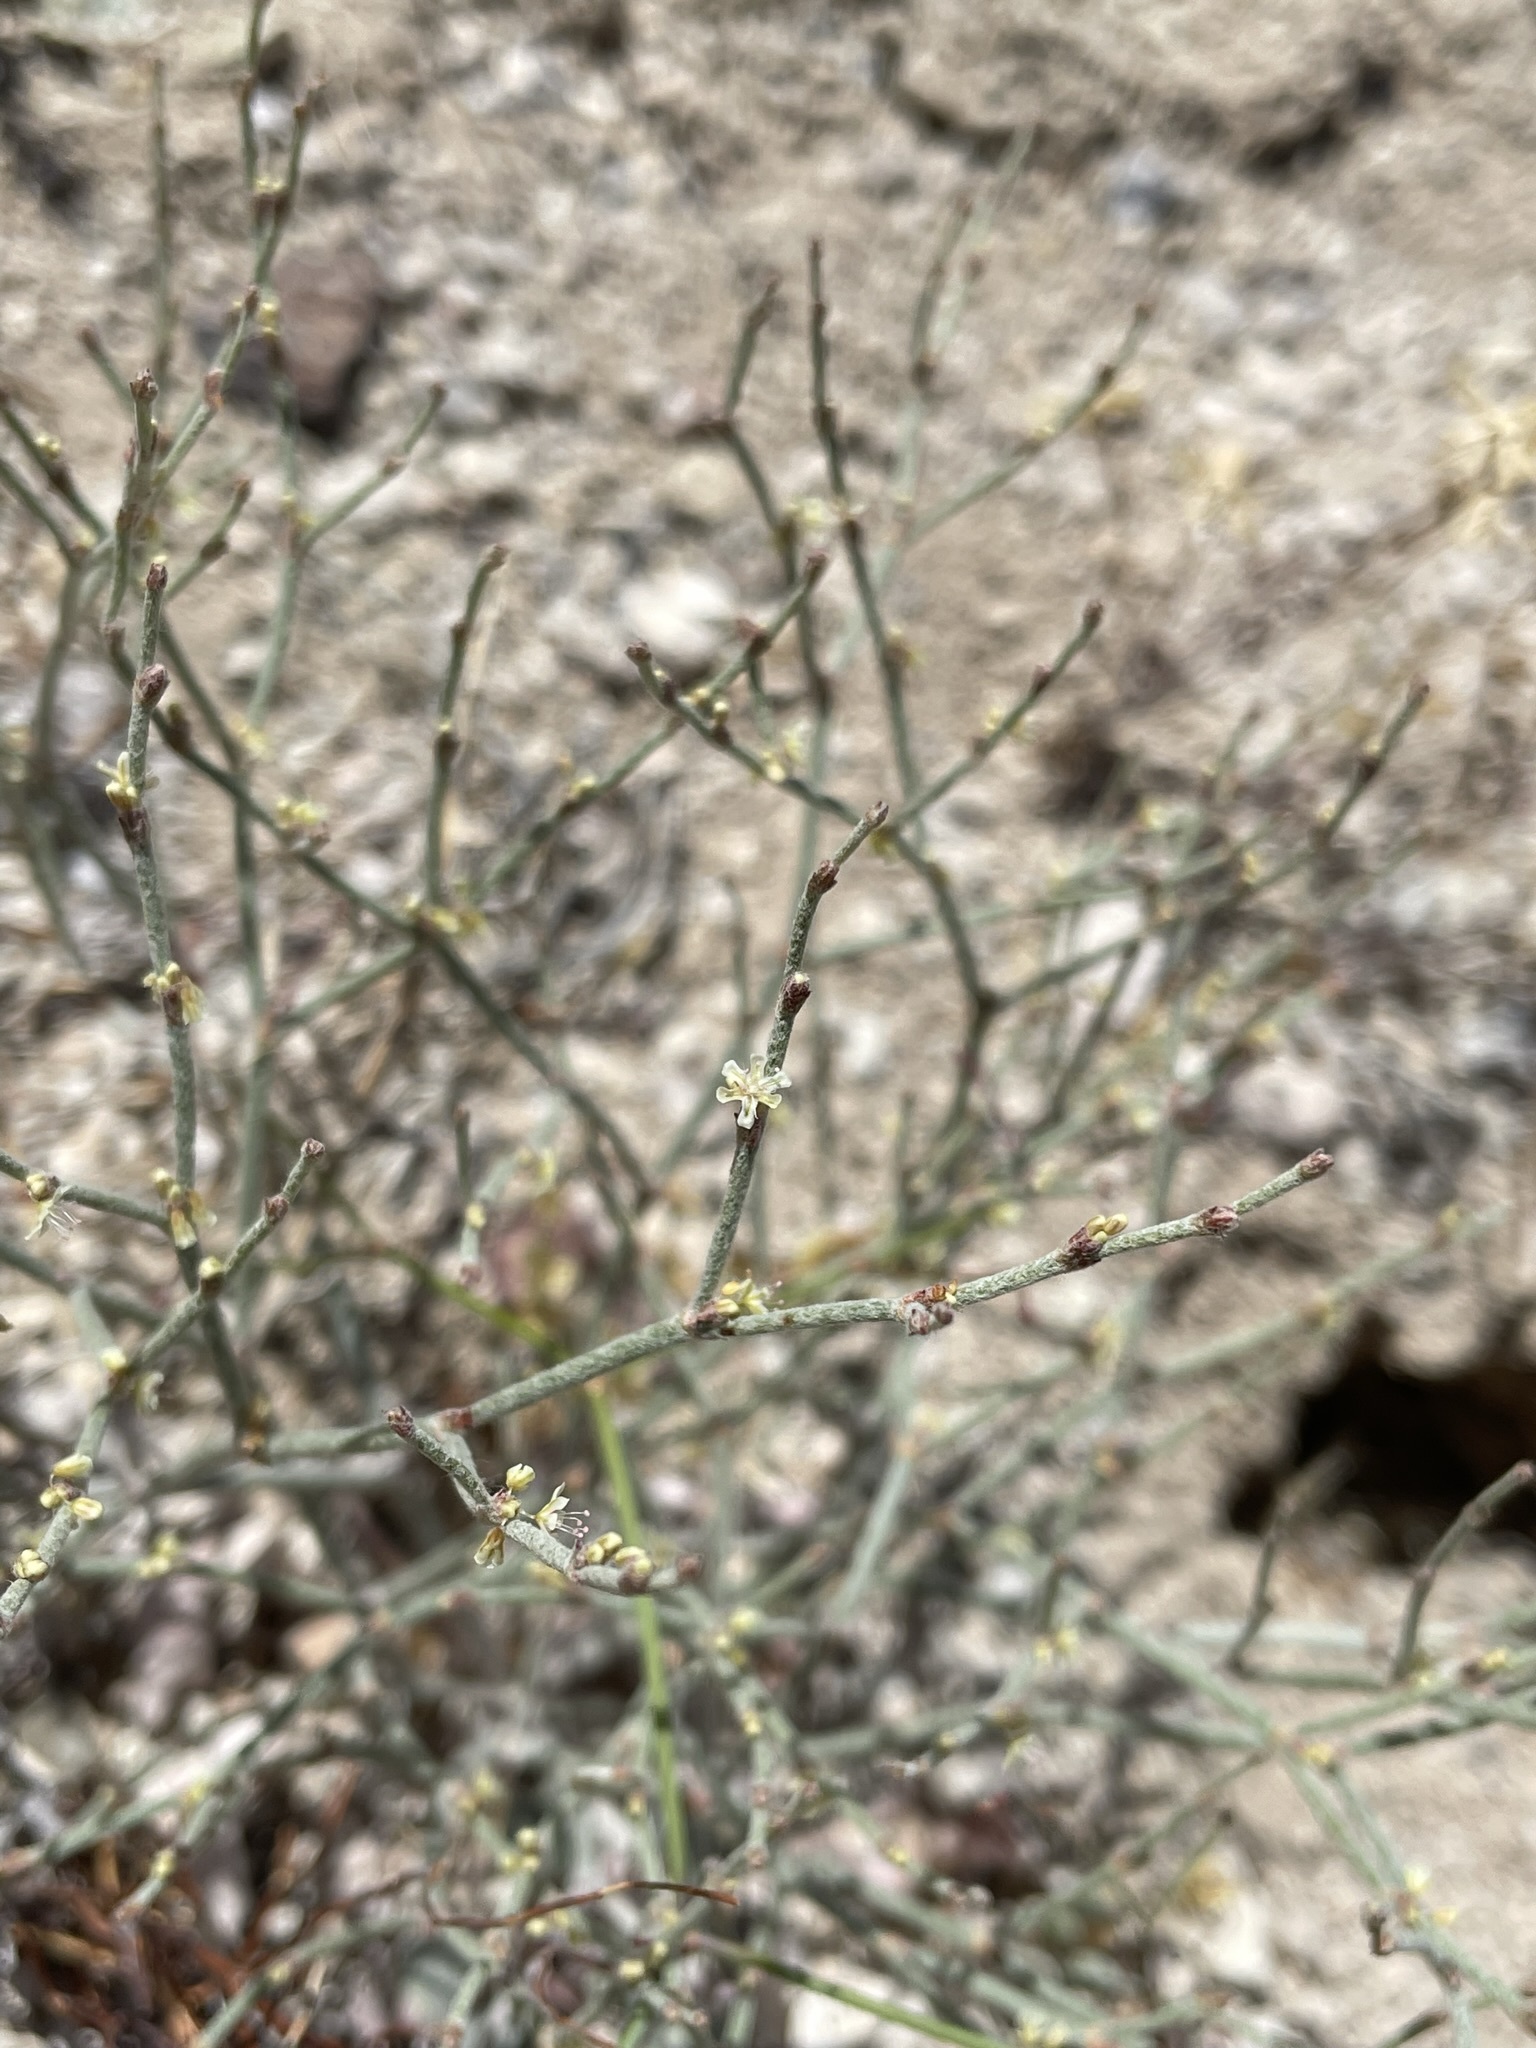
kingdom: Plantae
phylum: Tracheophyta
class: Magnoliopsida
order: Caryophyllales
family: Polygonaceae
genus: Eriogonum
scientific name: Eriogonum palmerianum
